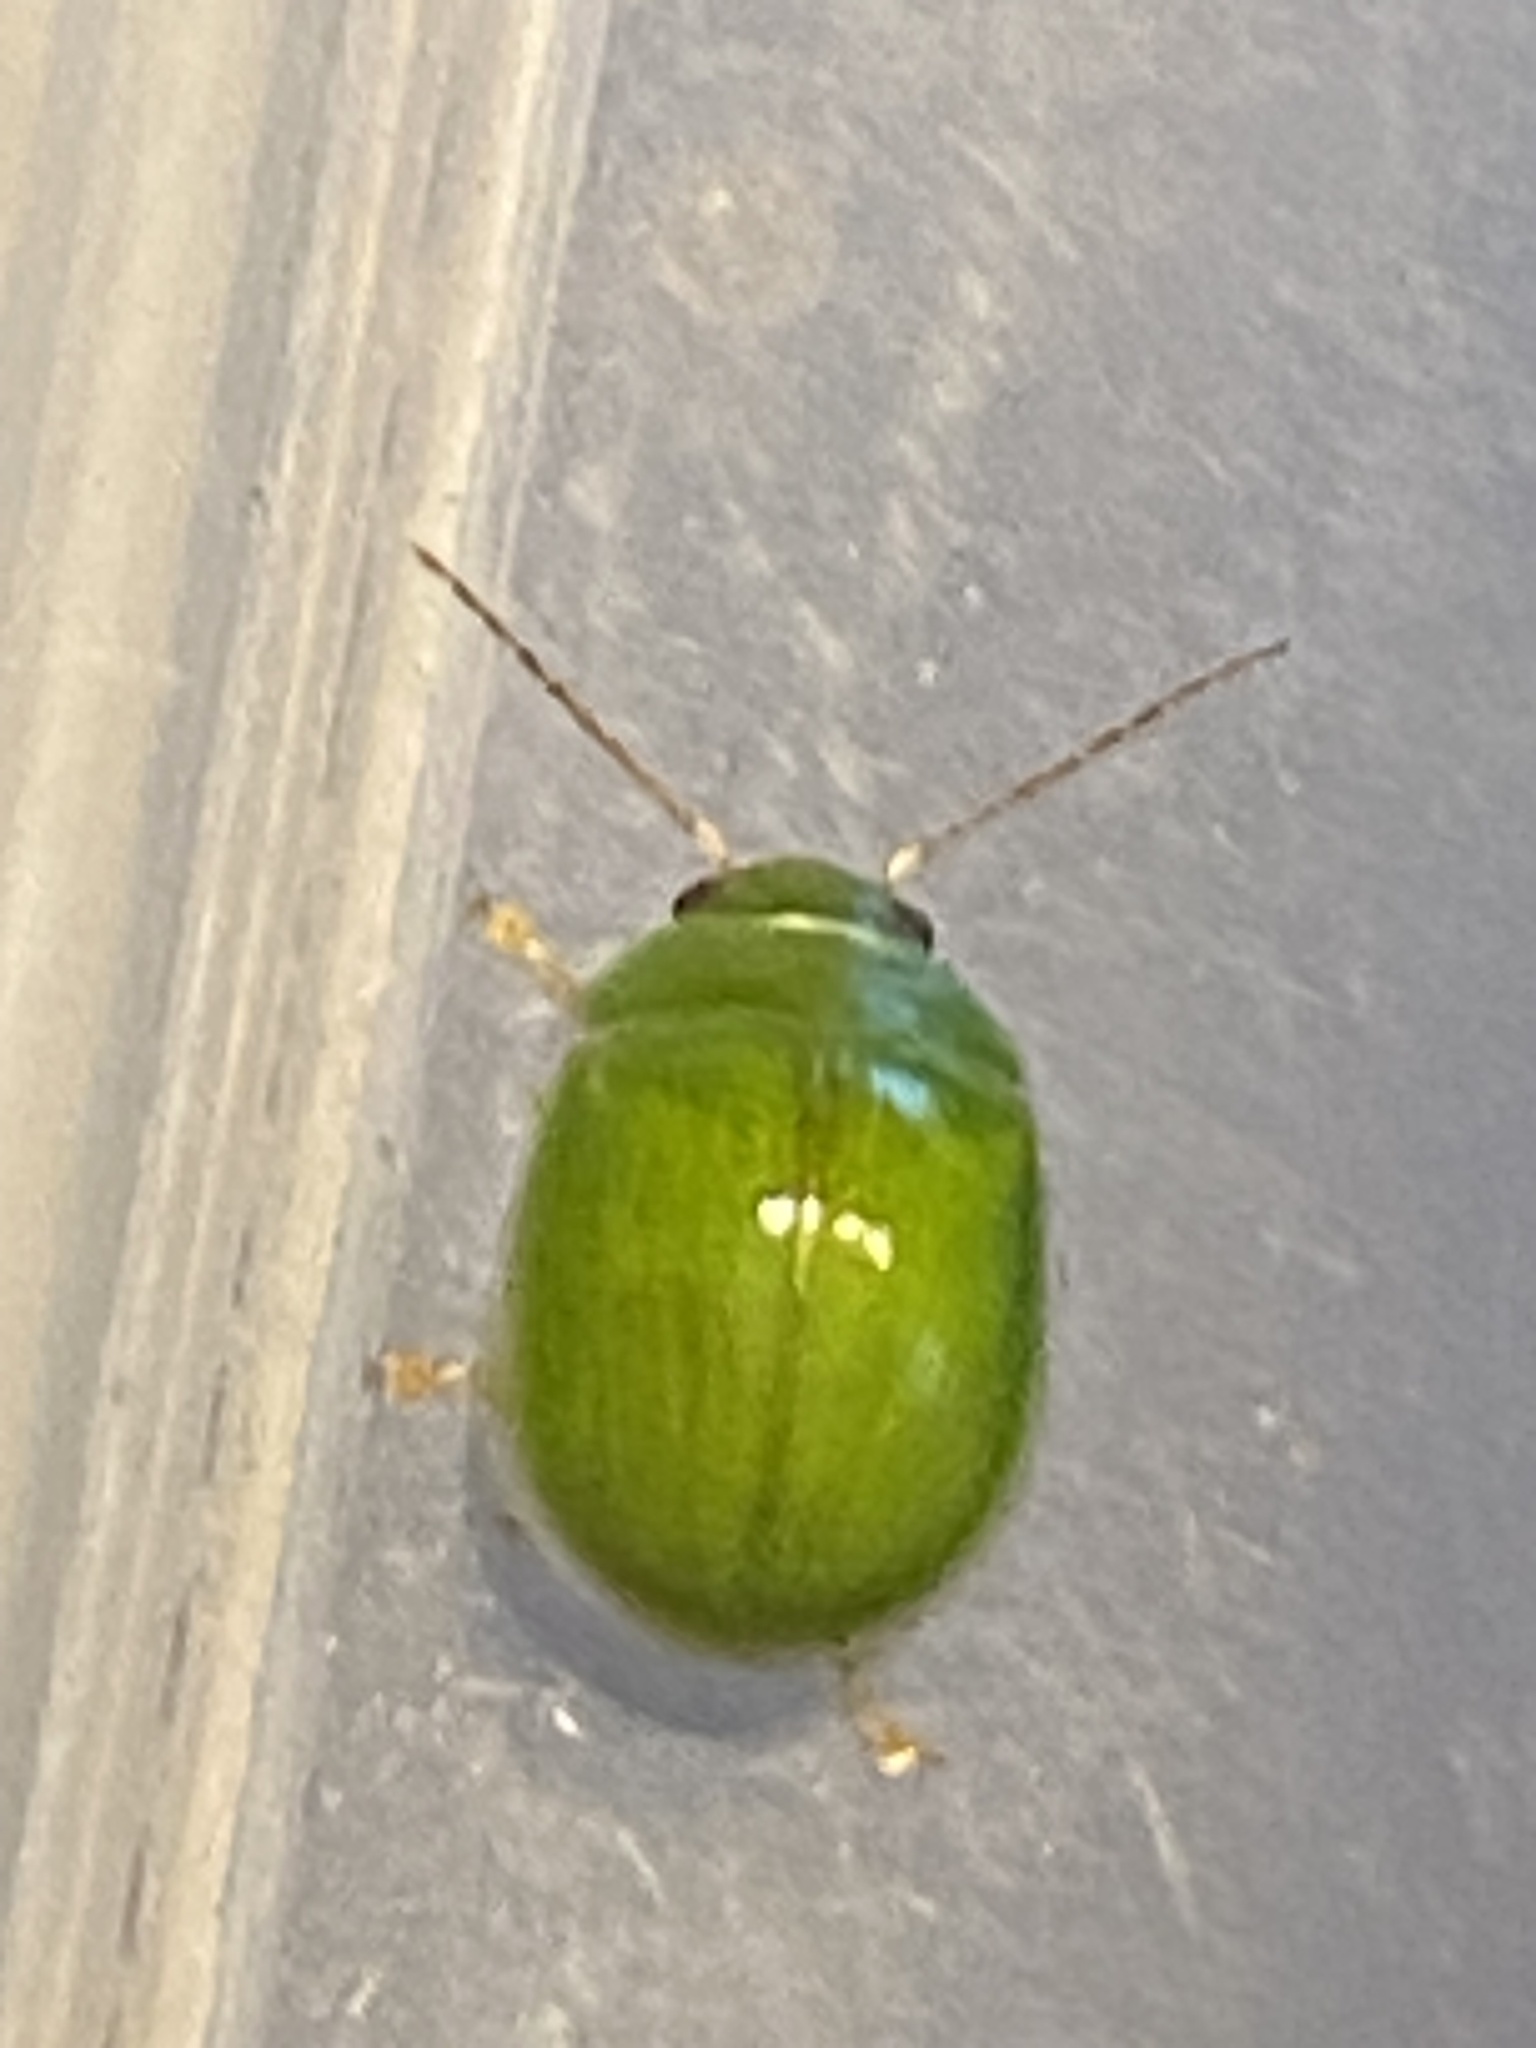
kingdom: Animalia
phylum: Arthropoda
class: Insecta
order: Coleoptera
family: Chrysomelidae
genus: Paropsides
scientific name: Paropsides
